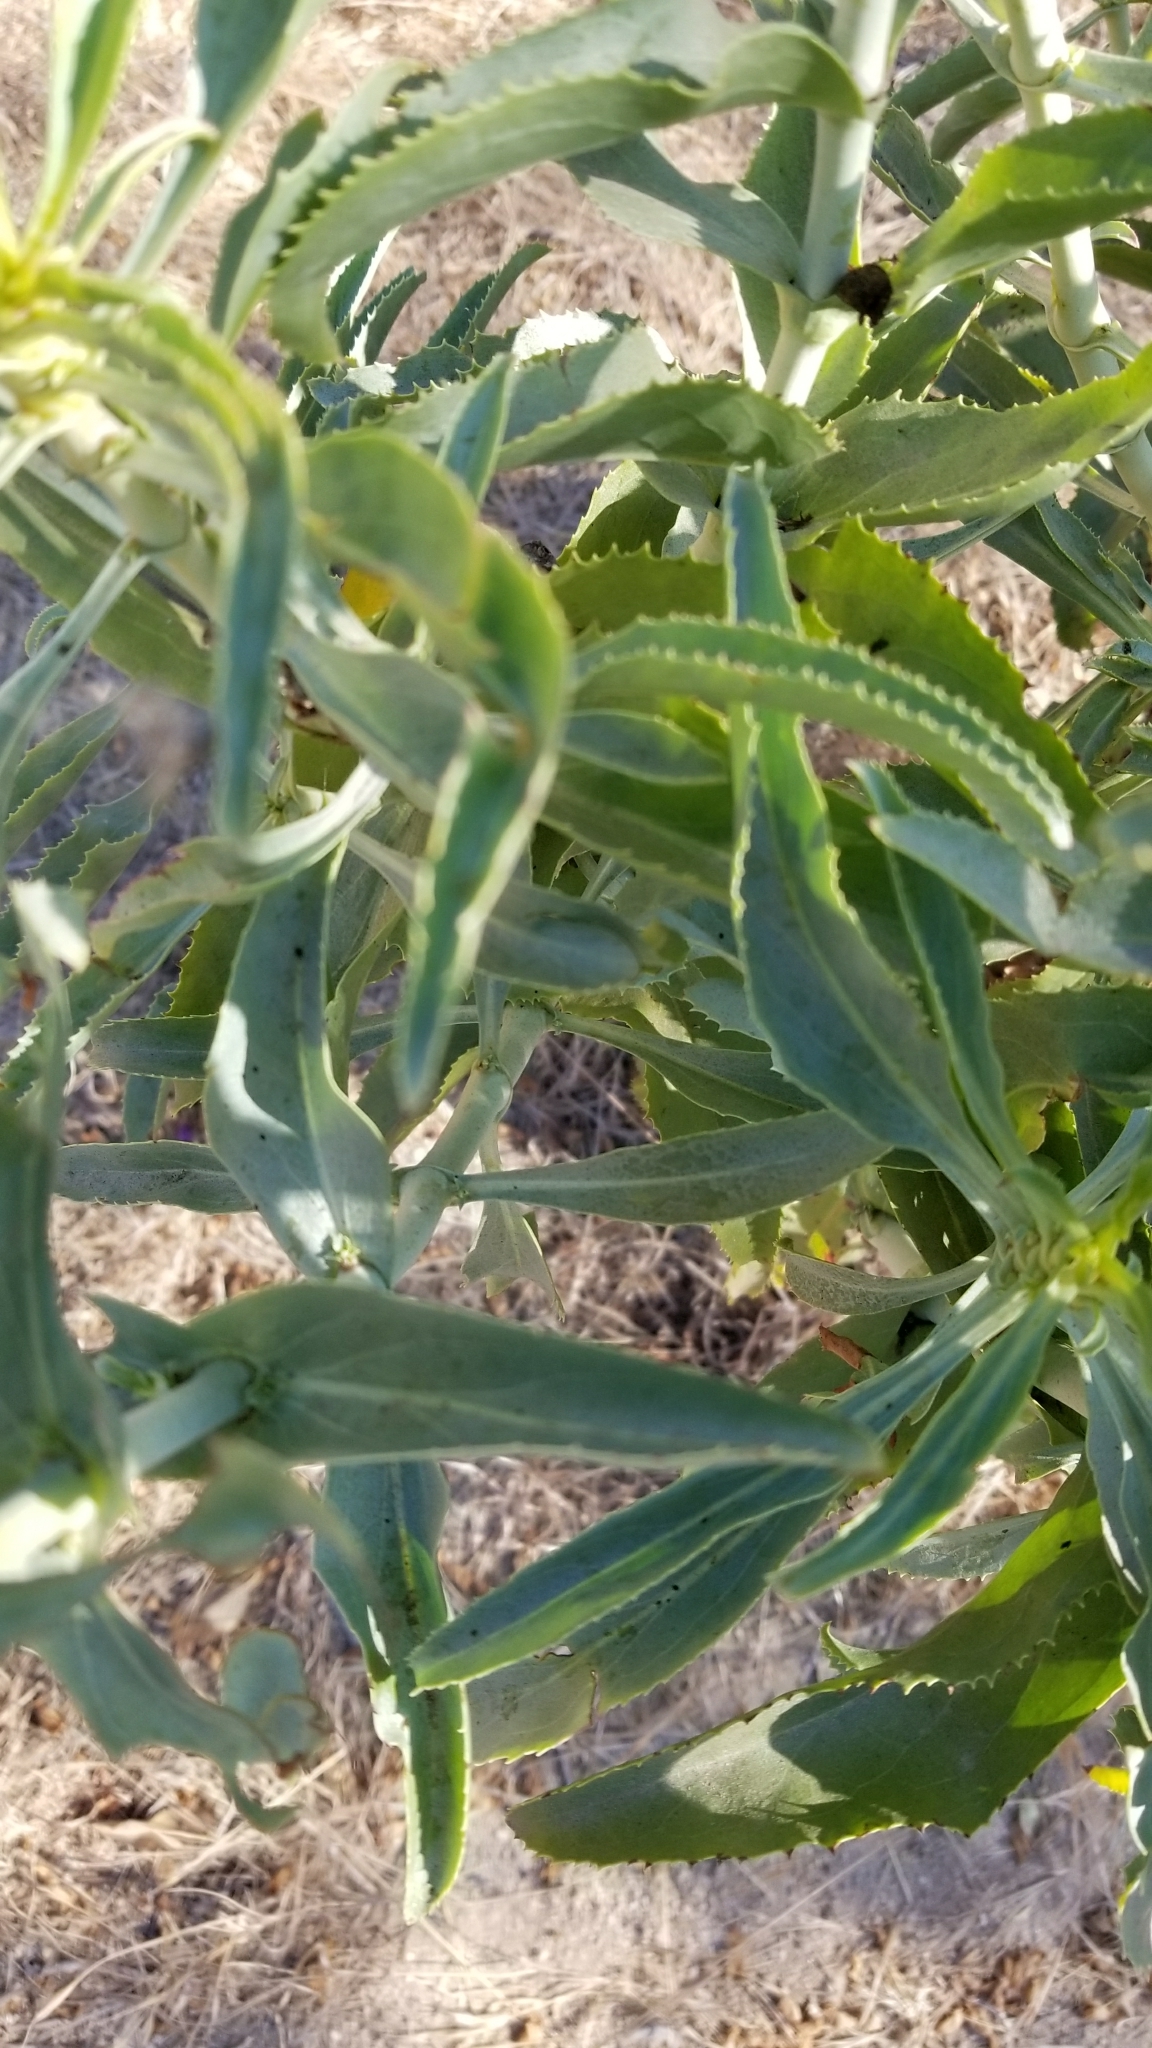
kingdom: Plantae
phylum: Tracheophyta
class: Magnoliopsida
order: Lamiales
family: Plantaginaceae
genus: Penstemon
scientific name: Penstemon spectabilis
